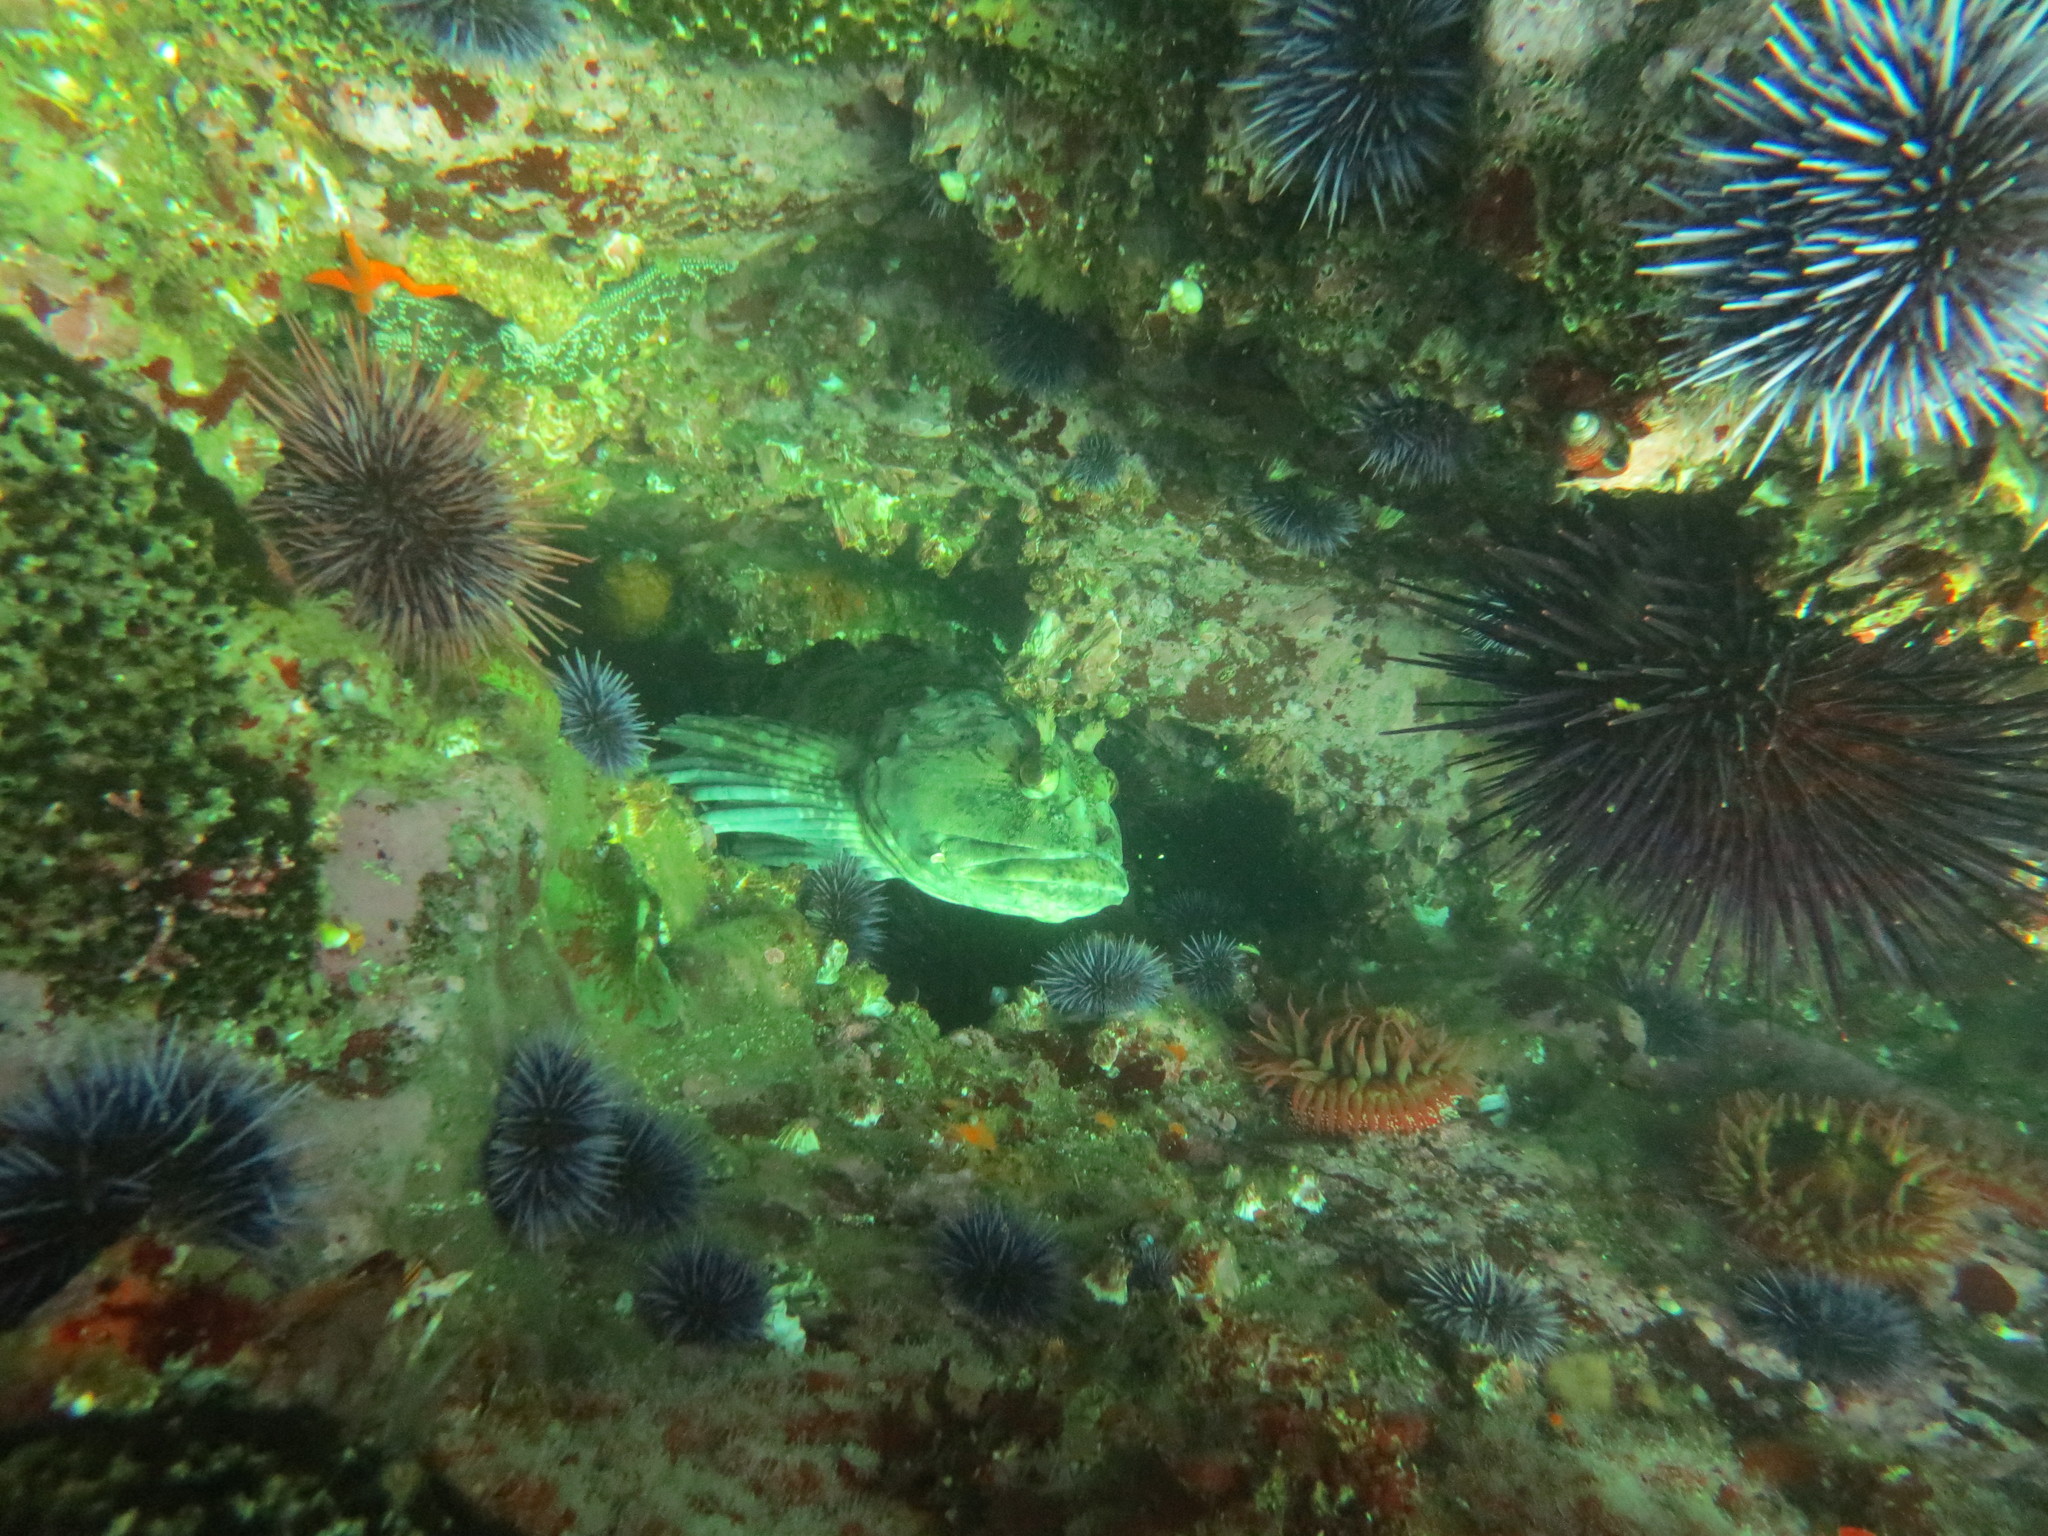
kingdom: Animalia
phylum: Cnidaria
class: Anthozoa
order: Actiniaria
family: Actiniidae
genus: Cribrinopsis
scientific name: Cribrinopsis albopunctata
